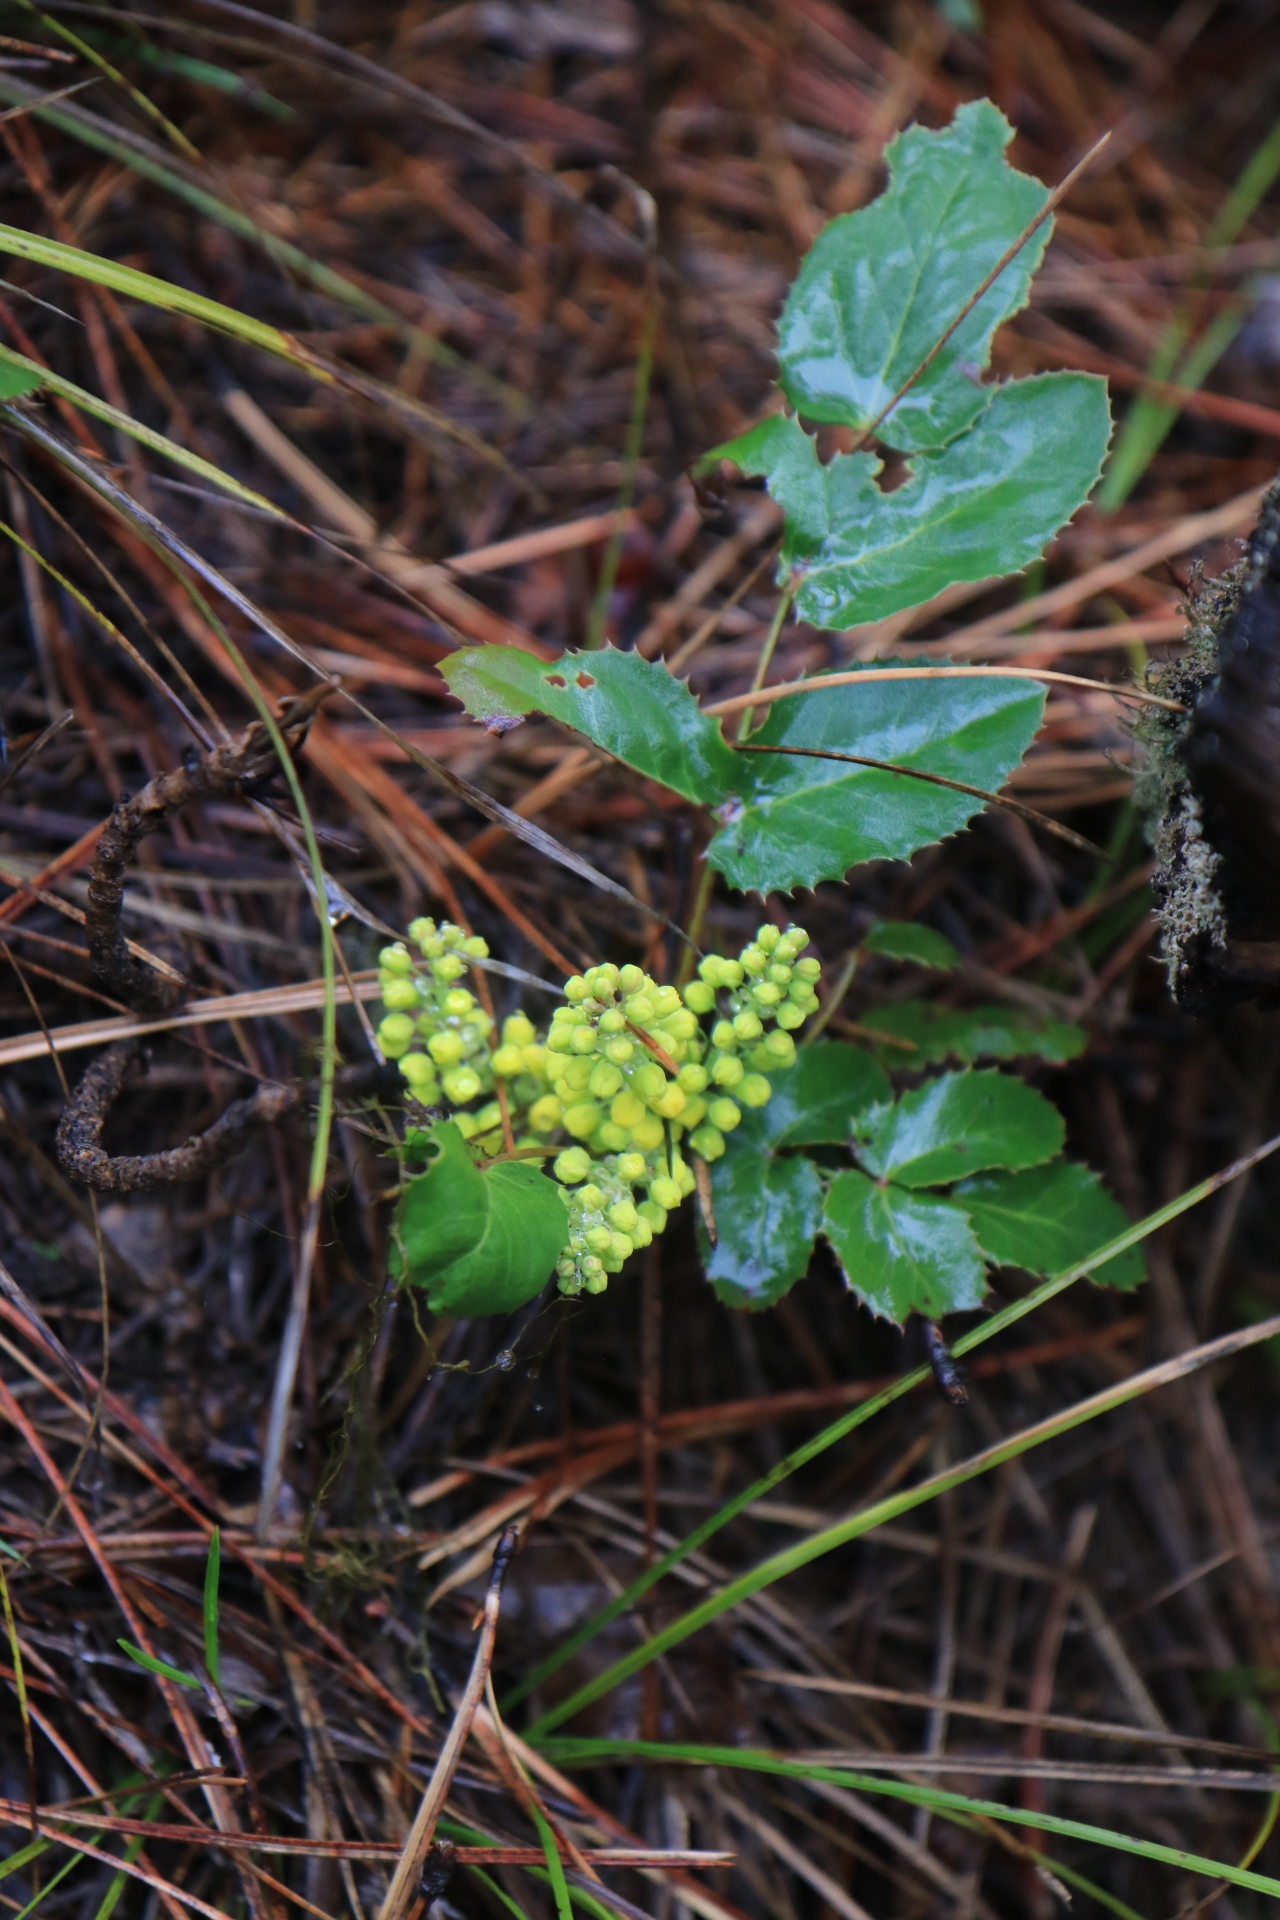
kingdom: Plantae
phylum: Tracheophyta
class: Magnoliopsida
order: Ranunculales
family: Berberidaceae
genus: Mahonia
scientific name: Mahonia repens
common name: Creeping oregon-grape
